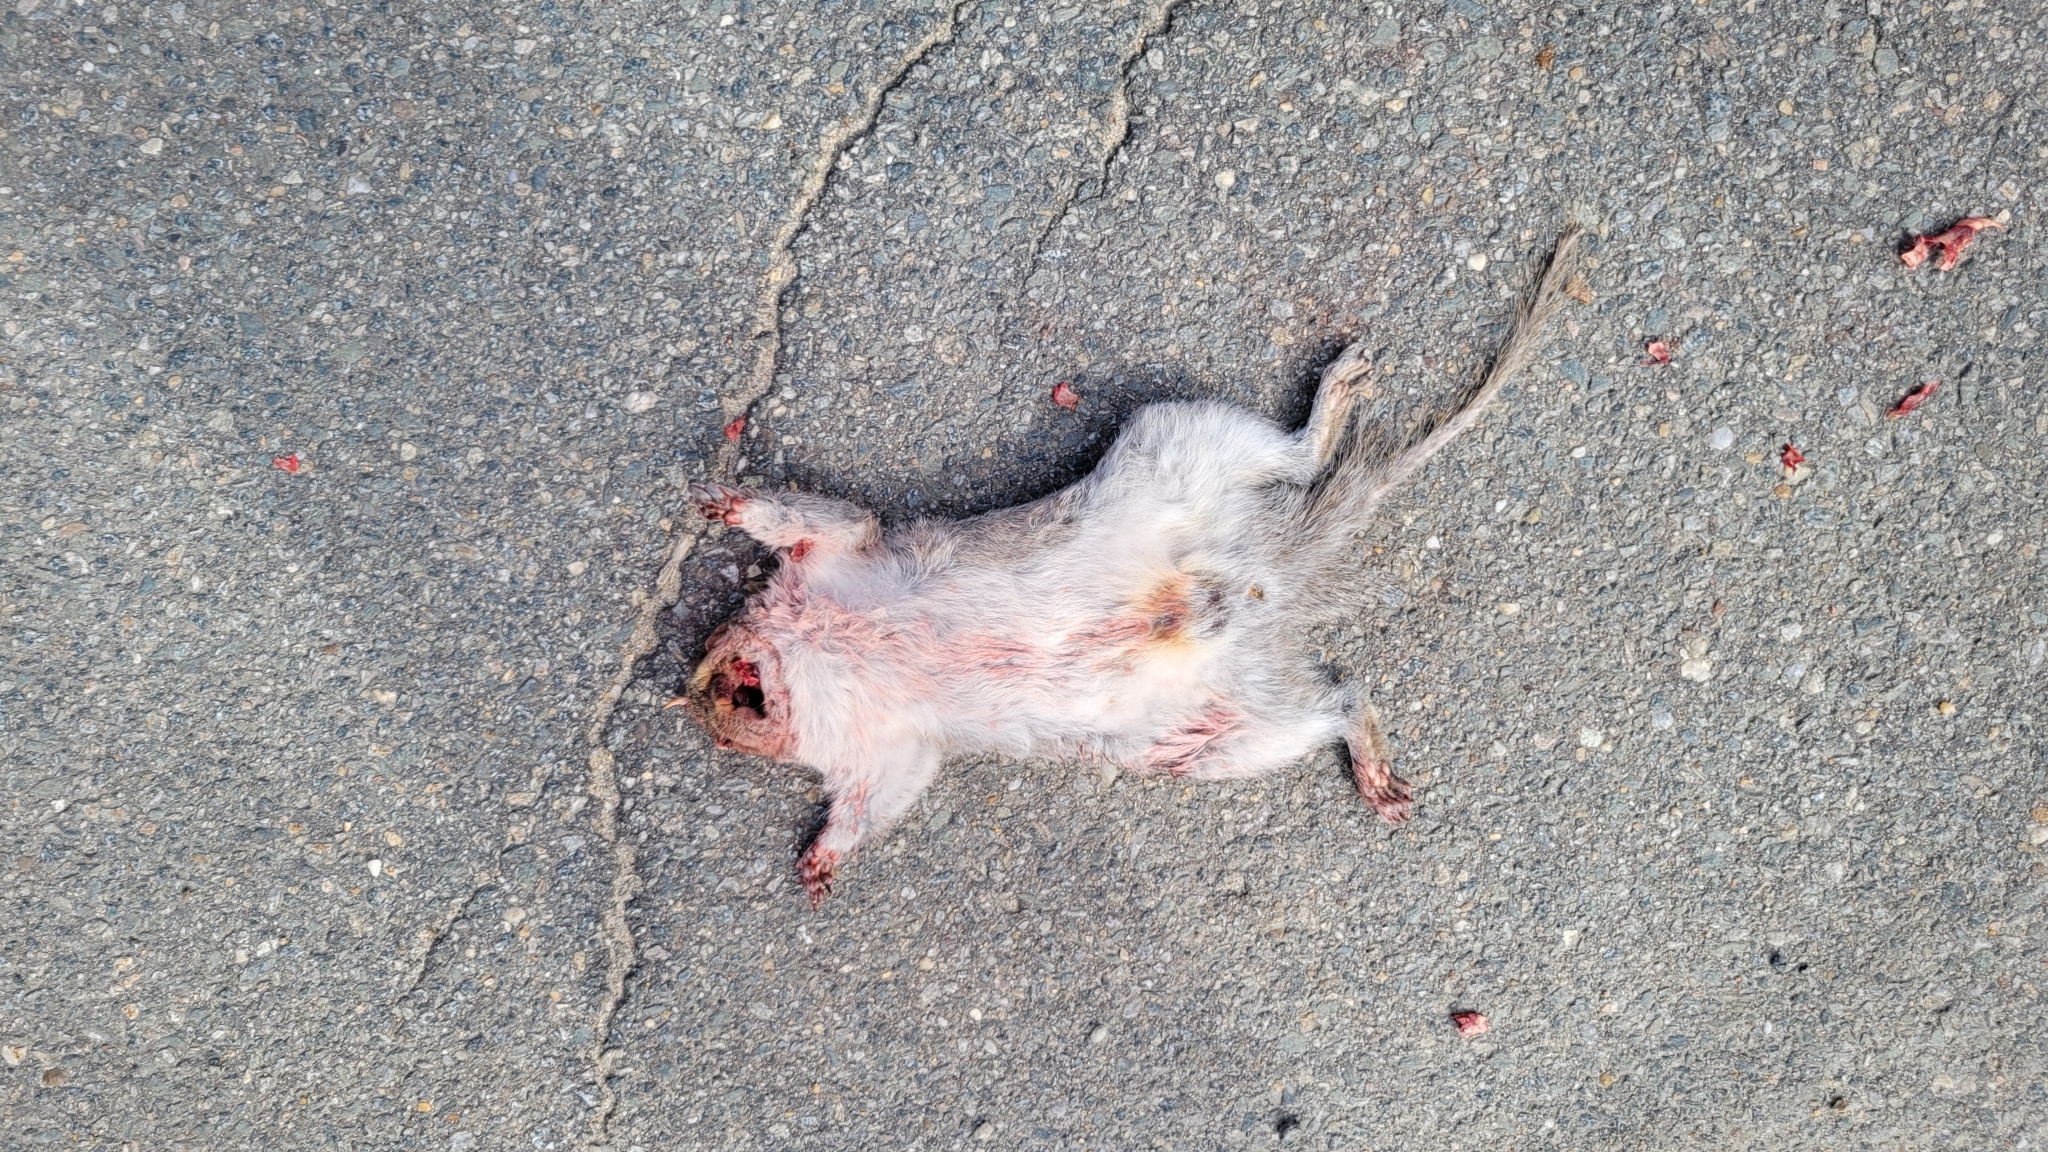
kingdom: Animalia
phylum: Chordata
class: Mammalia
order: Rodentia
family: Sciuridae
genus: Sciurus
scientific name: Sciurus carolinensis
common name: Eastern gray squirrel
